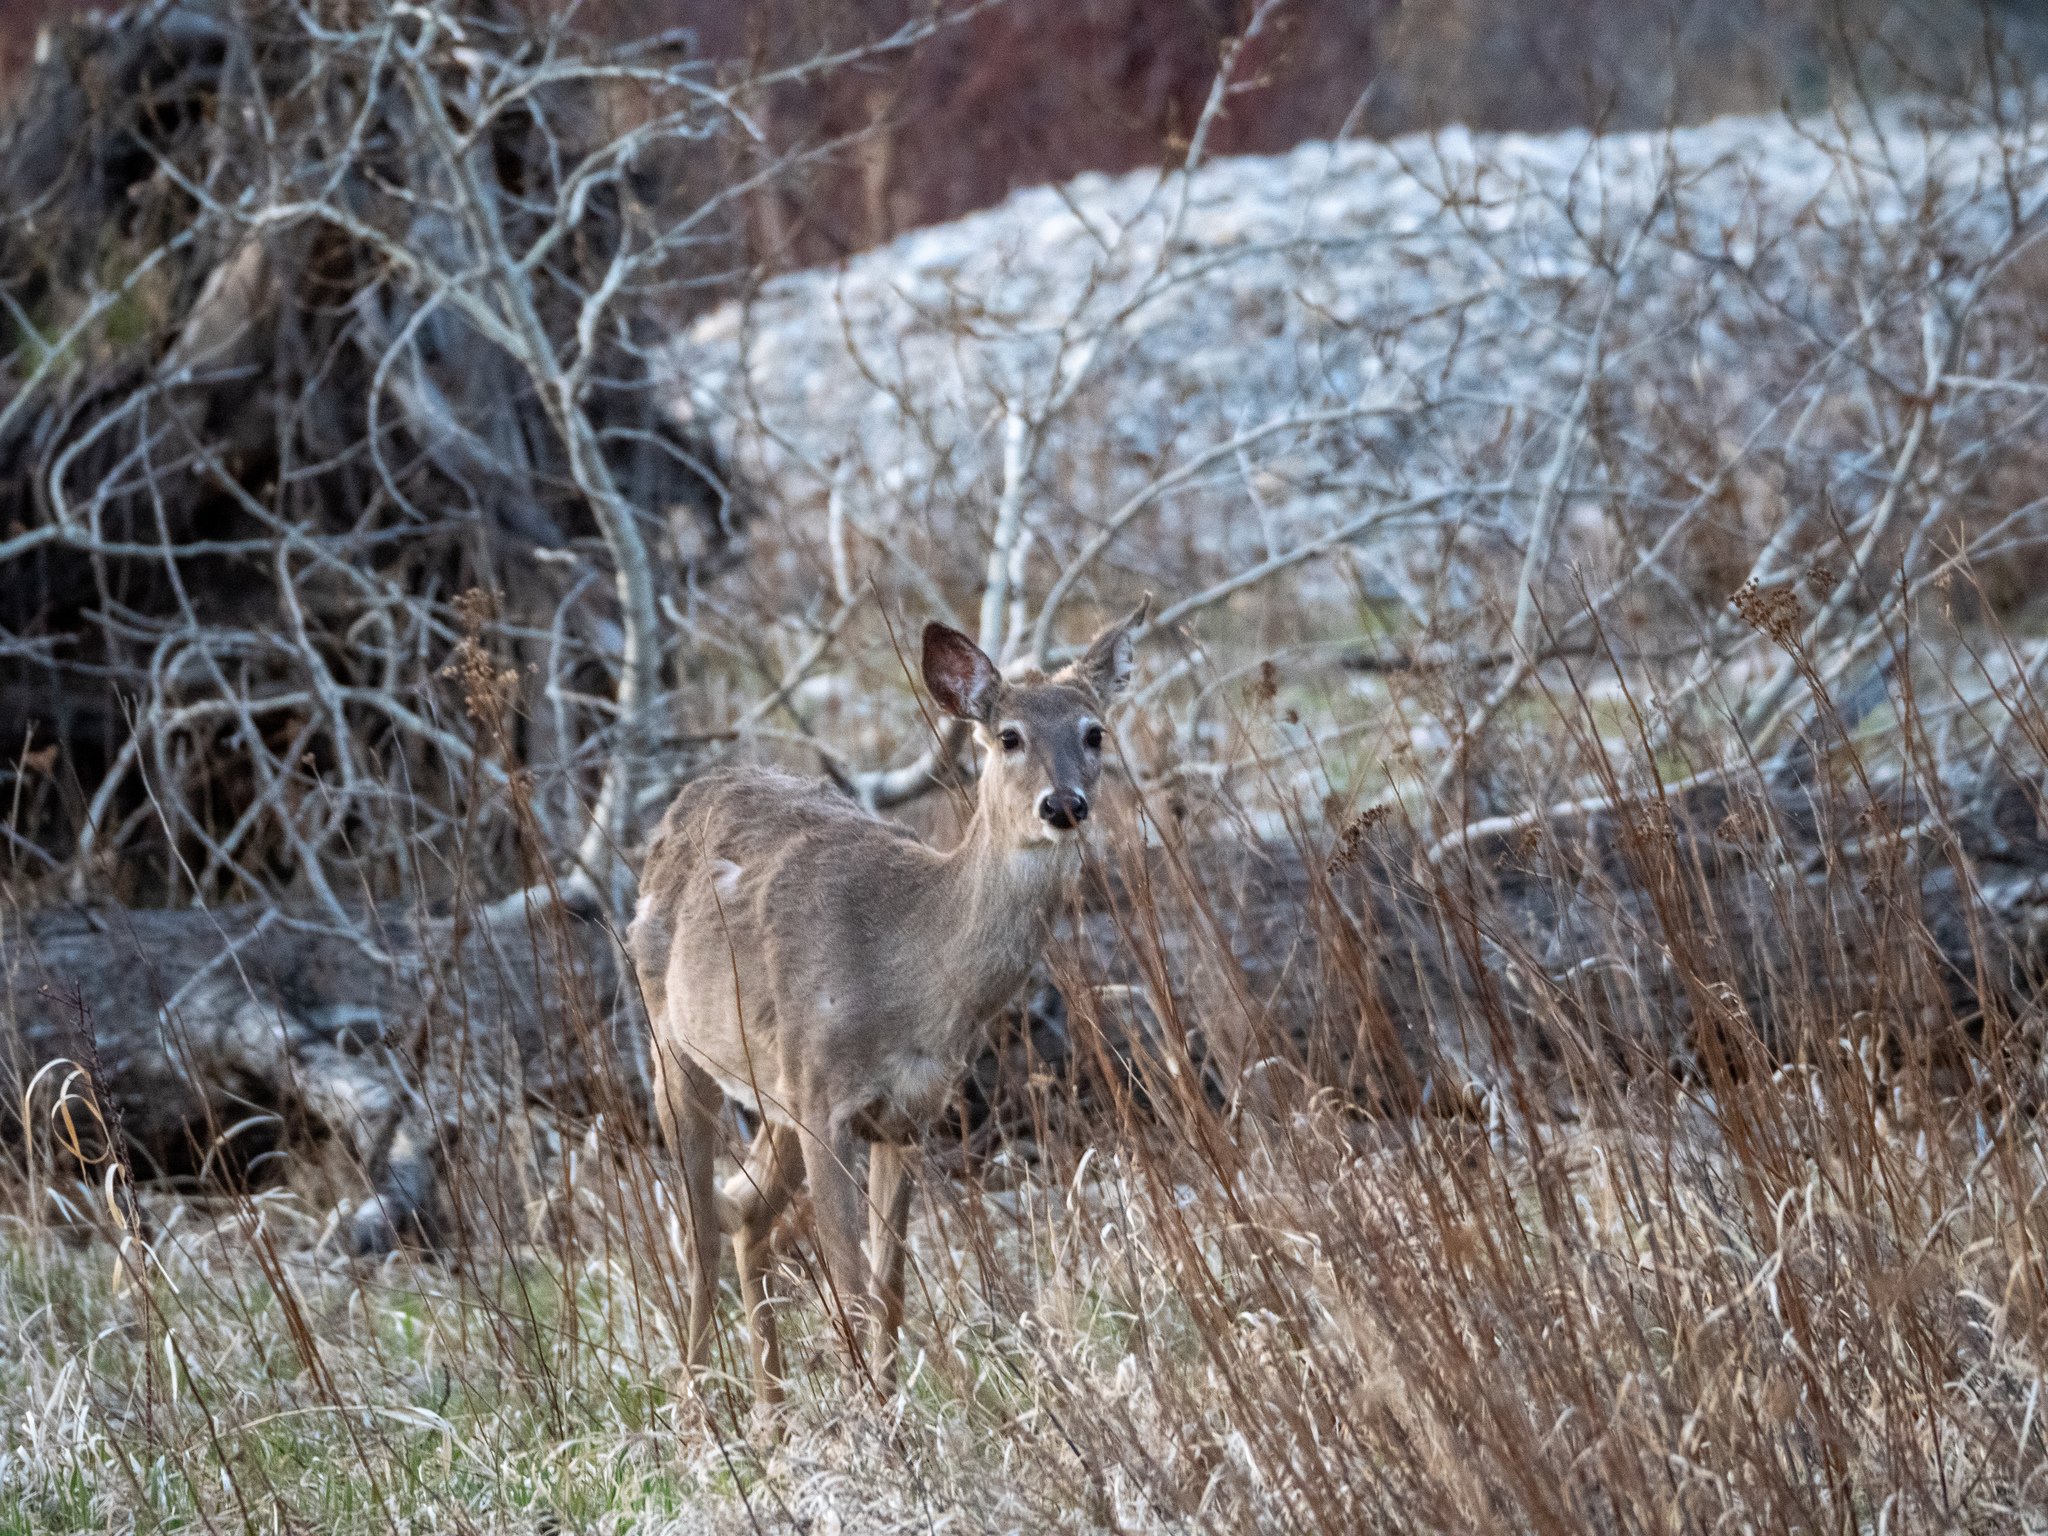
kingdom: Animalia
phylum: Chordata
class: Mammalia
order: Artiodactyla
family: Cervidae
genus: Odocoileus
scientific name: Odocoileus virginianus
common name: White-tailed deer
